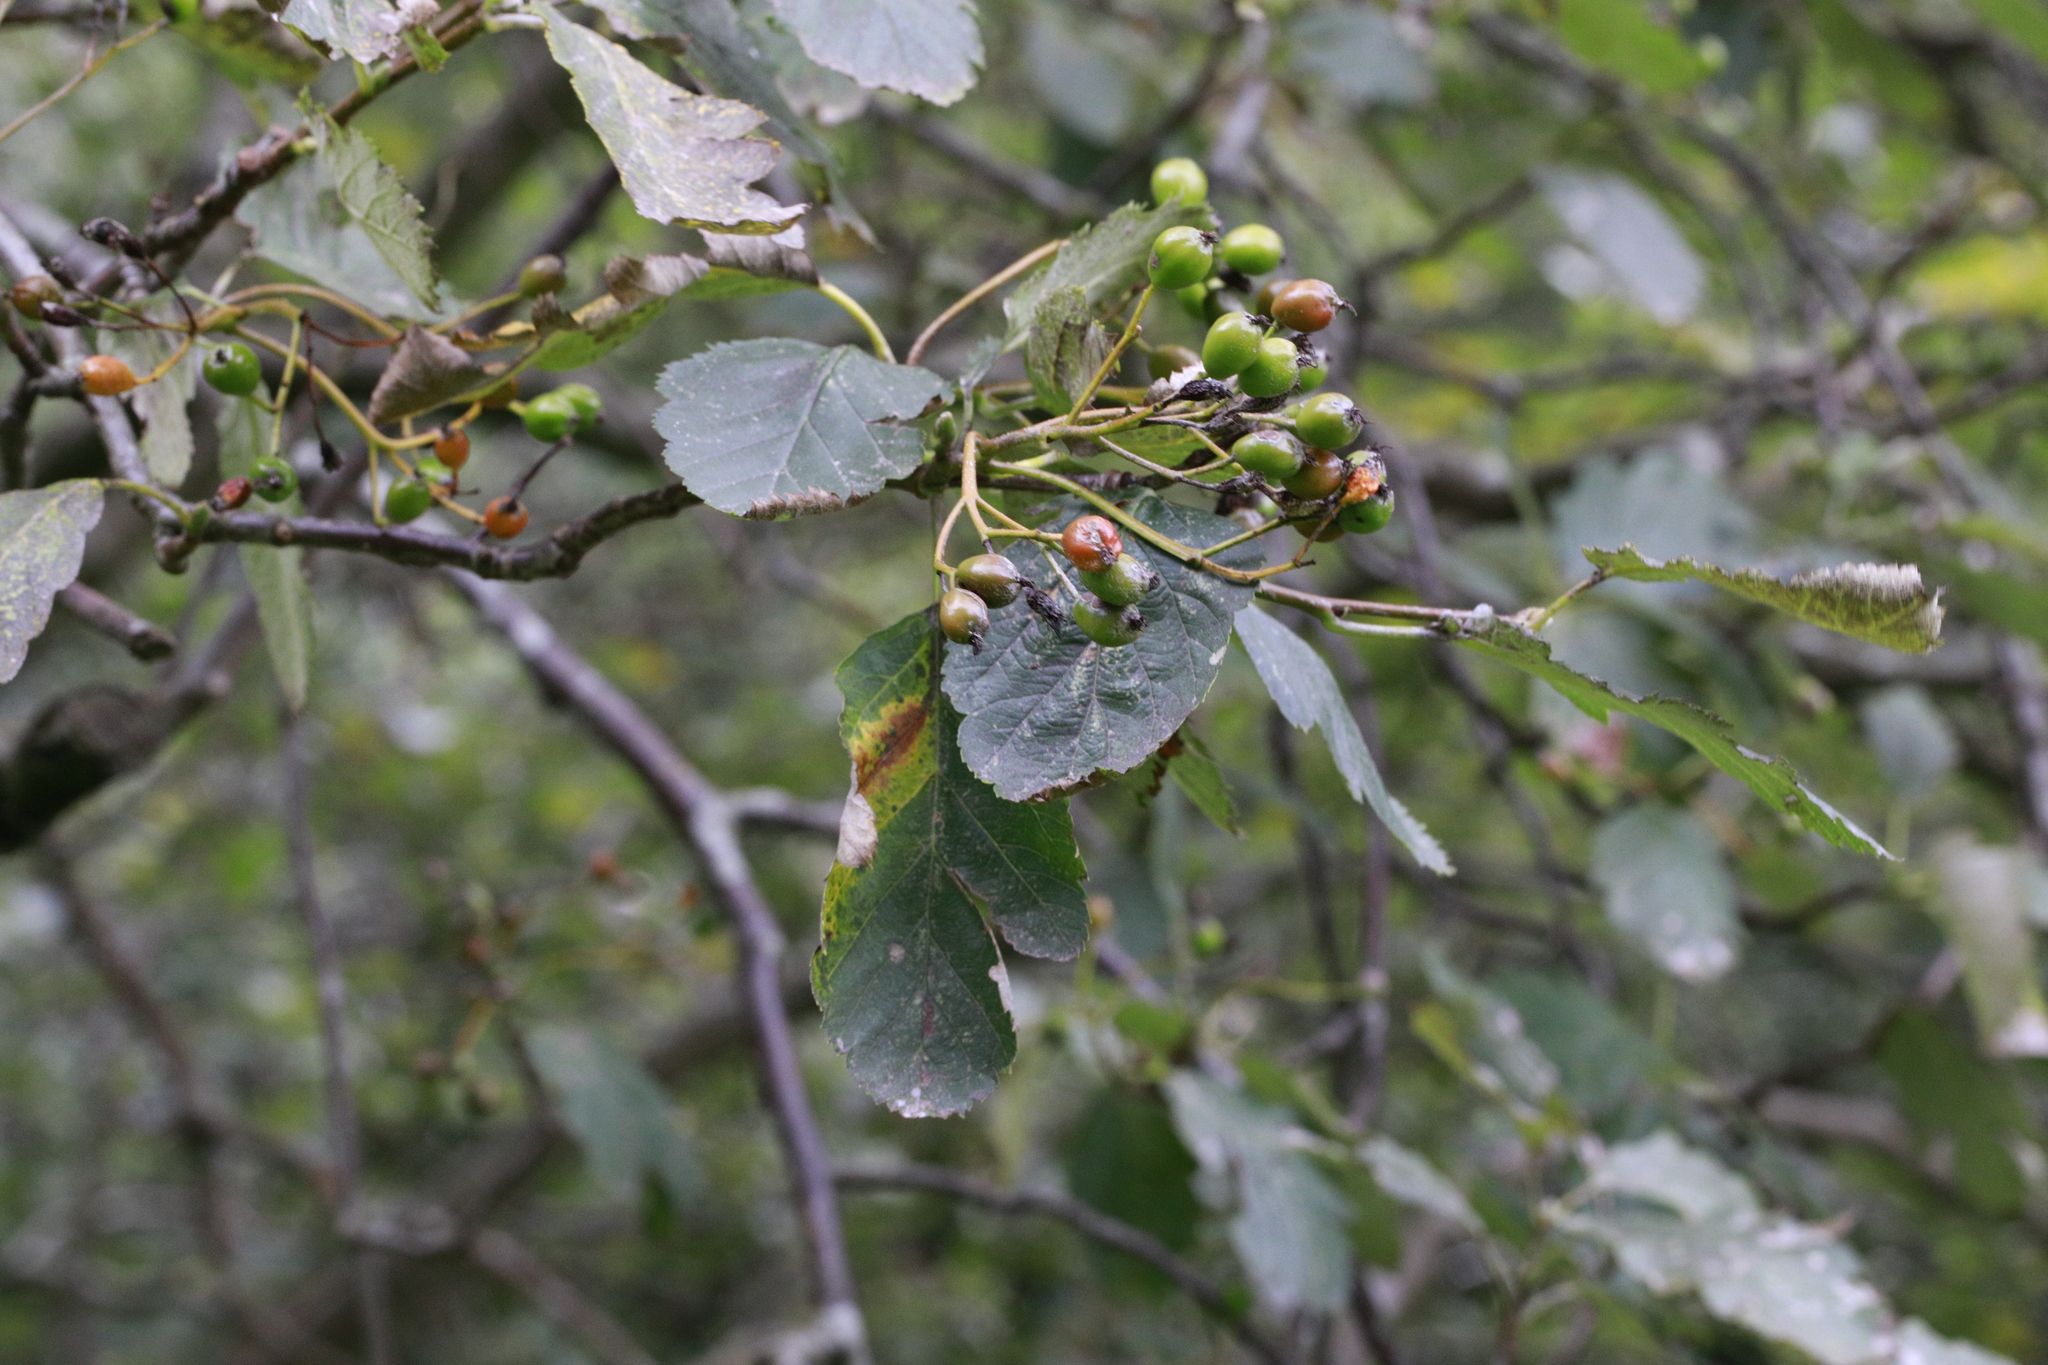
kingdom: Plantae
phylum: Tracheophyta
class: Magnoliopsida
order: Rosales
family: Rosaceae
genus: Scandosorbus
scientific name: Scandosorbus intermedia
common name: Swedish whitebeam
